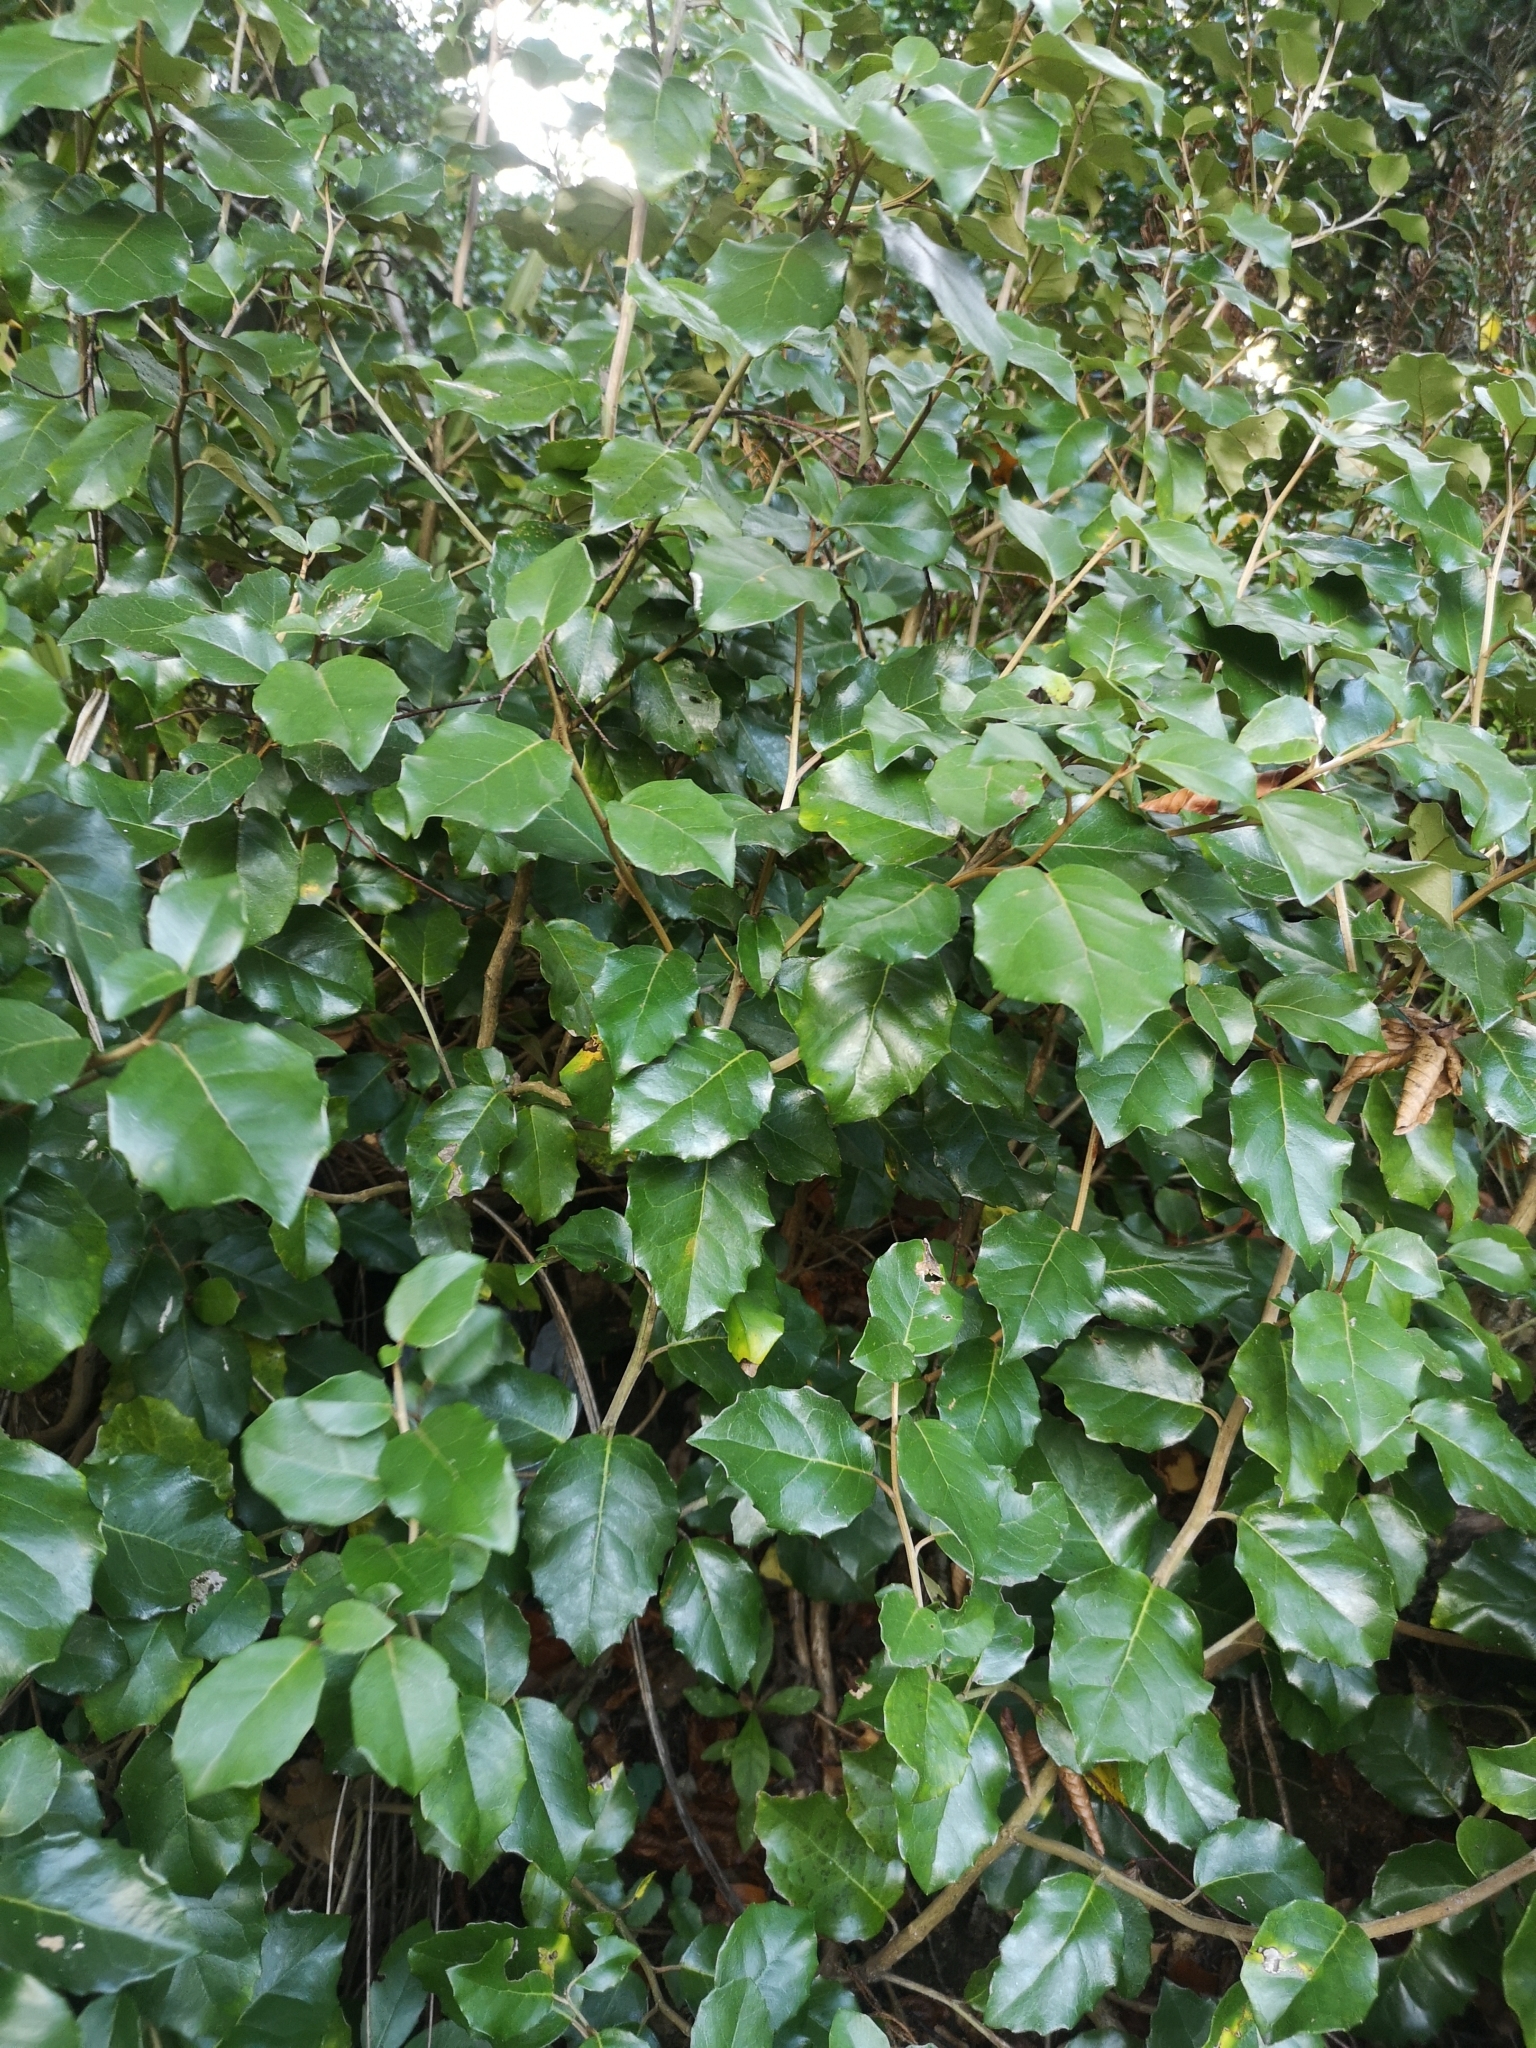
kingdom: Plantae
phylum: Tracheophyta
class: Magnoliopsida
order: Asterales
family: Asteraceae
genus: Olearia
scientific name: Olearia arborescens
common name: Glossy tree daisy
